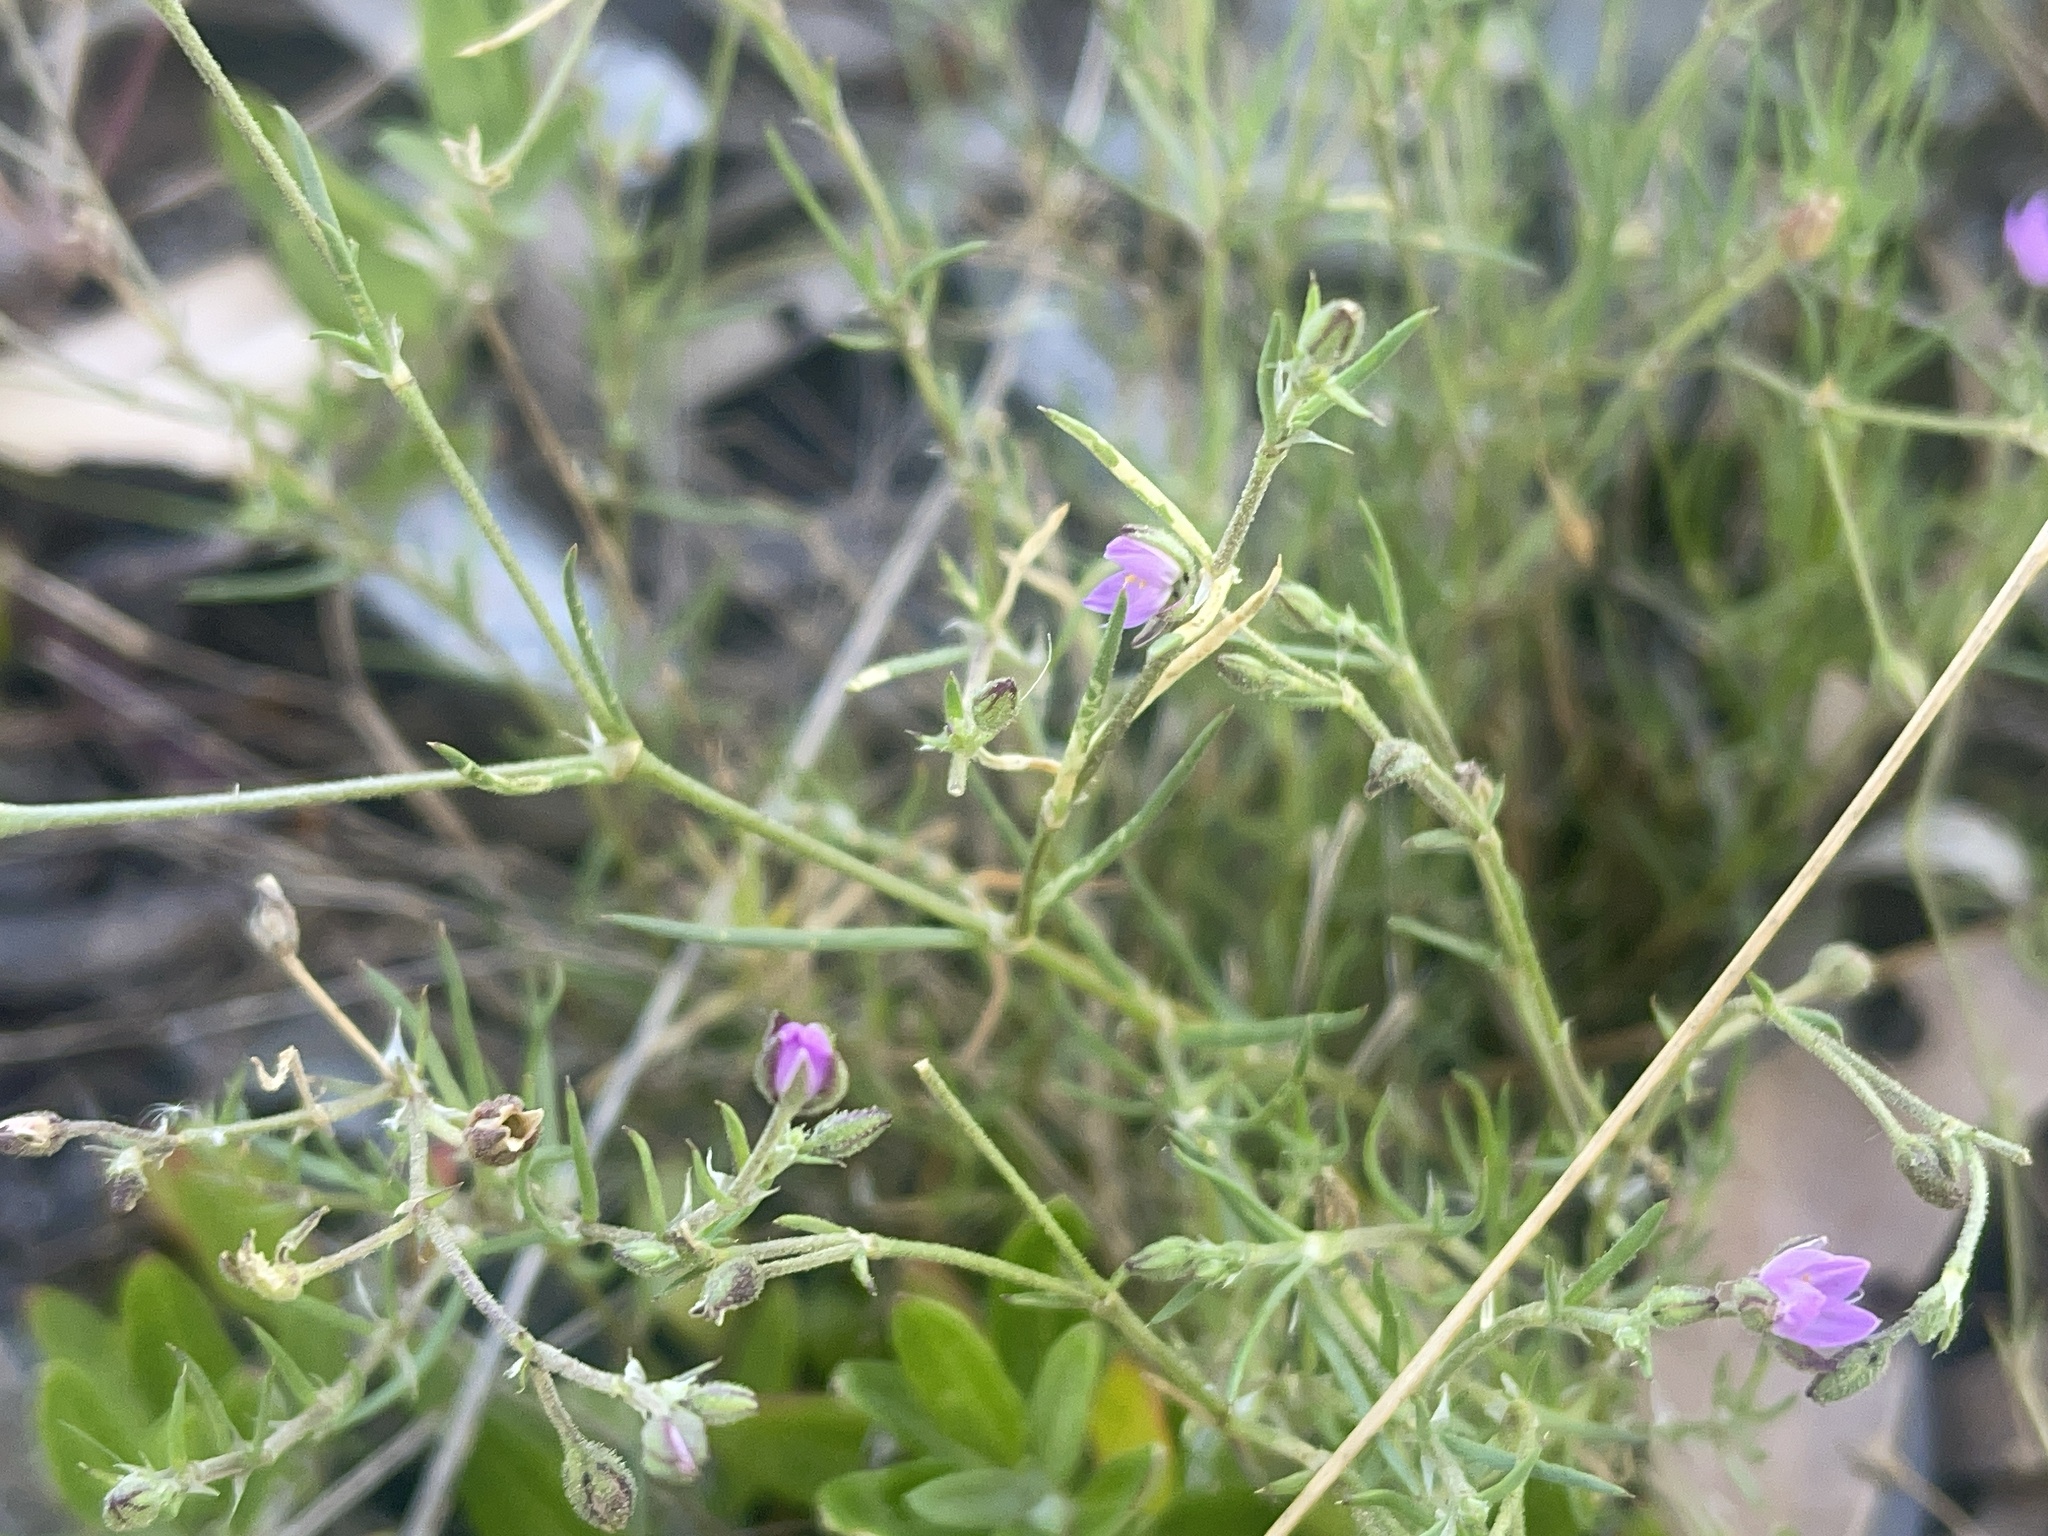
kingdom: Plantae
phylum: Tracheophyta
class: Magnoliopsida
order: Caryophyllales
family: Caryophyllaceae
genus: Spergularia
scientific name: Spergularia rubra
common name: Red sand-spurrey
